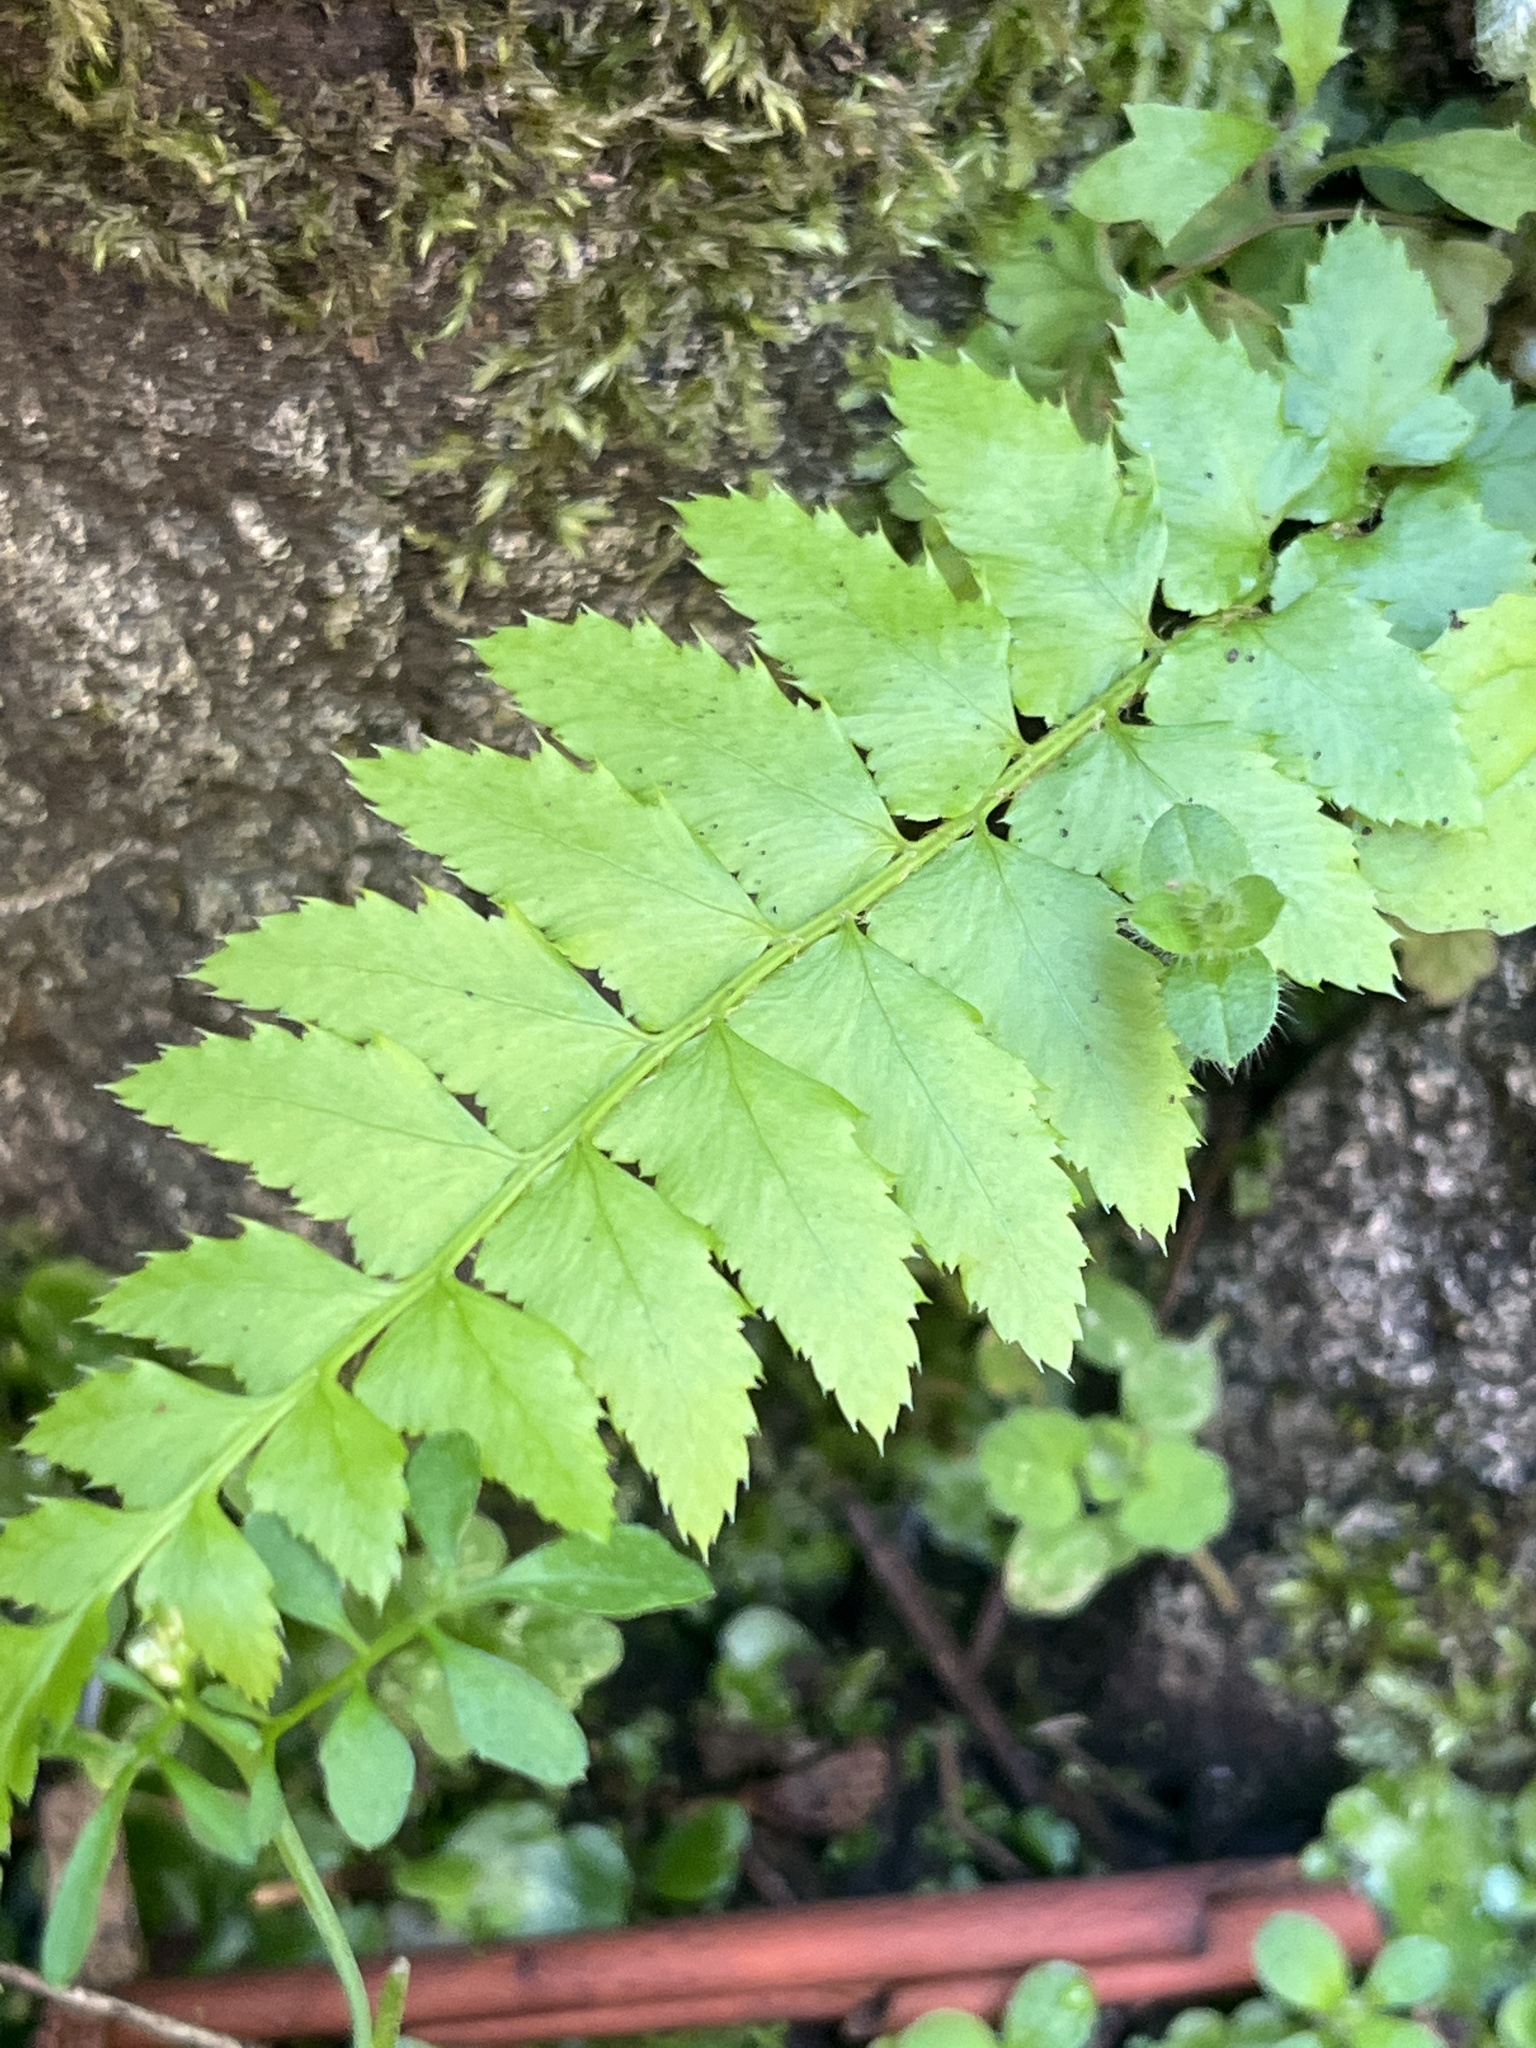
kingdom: Plantae
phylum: Tracheophyta
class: Polypodiopsida
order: Polypodiales
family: Dryopteridaceae
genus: Polystichum
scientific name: Polystichum munitum
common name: Western sword-fern
